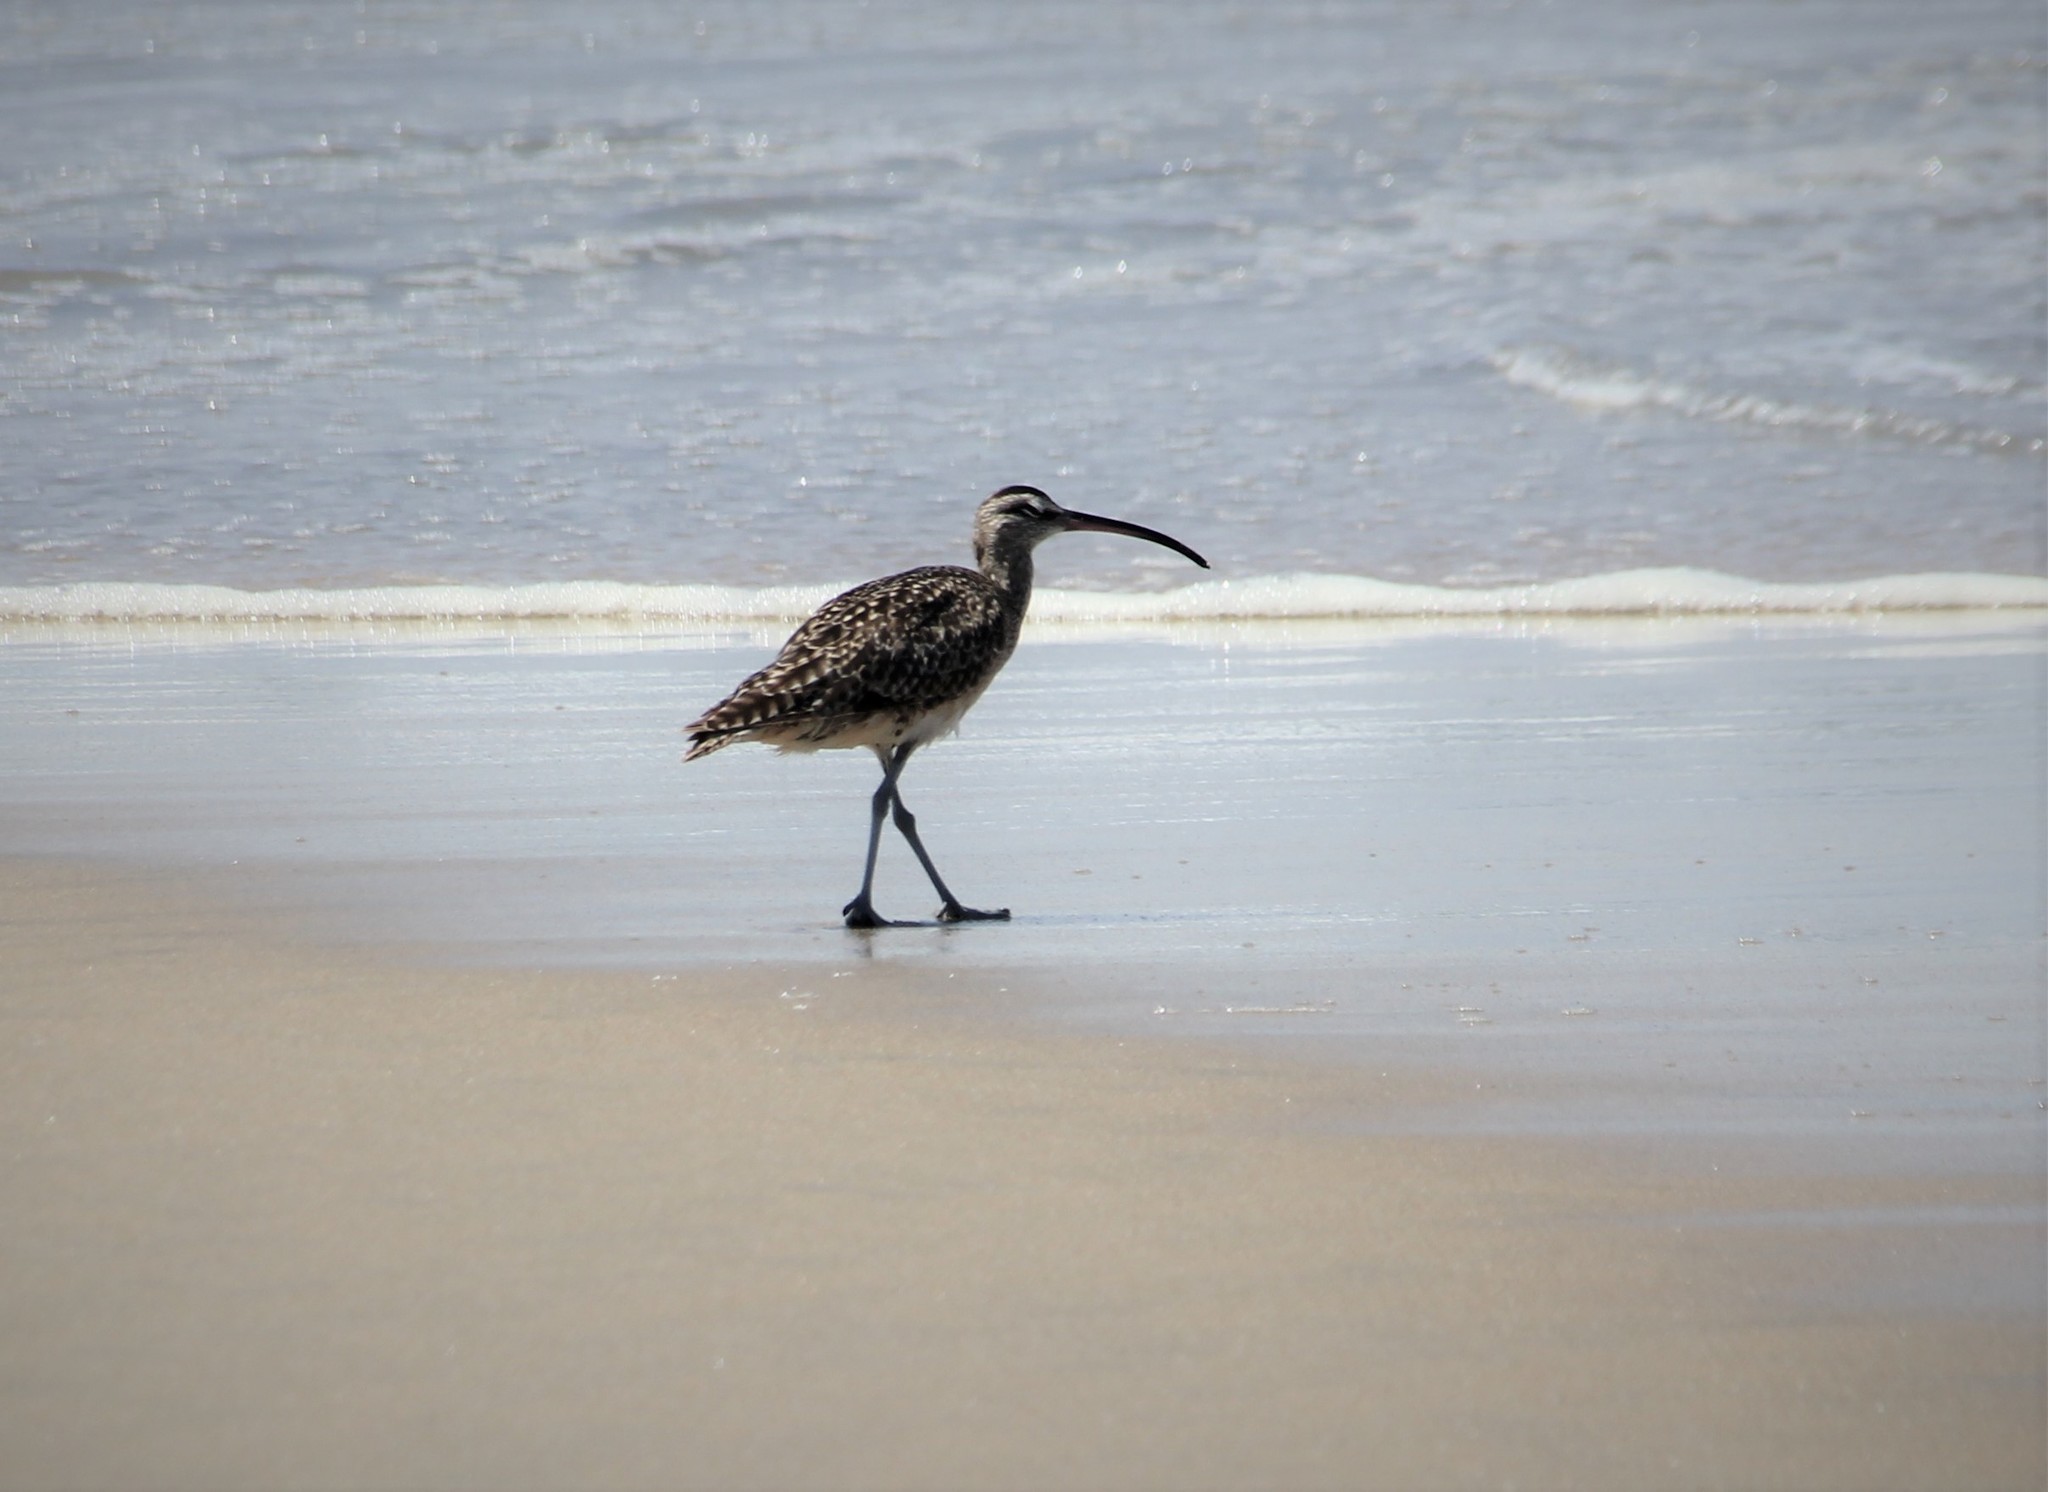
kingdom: Animalia
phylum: Chordata
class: Aves
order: Charadriiformes
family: Scolopacidae
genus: Numenius
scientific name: Numenius phaeopus
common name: Whimbrel
